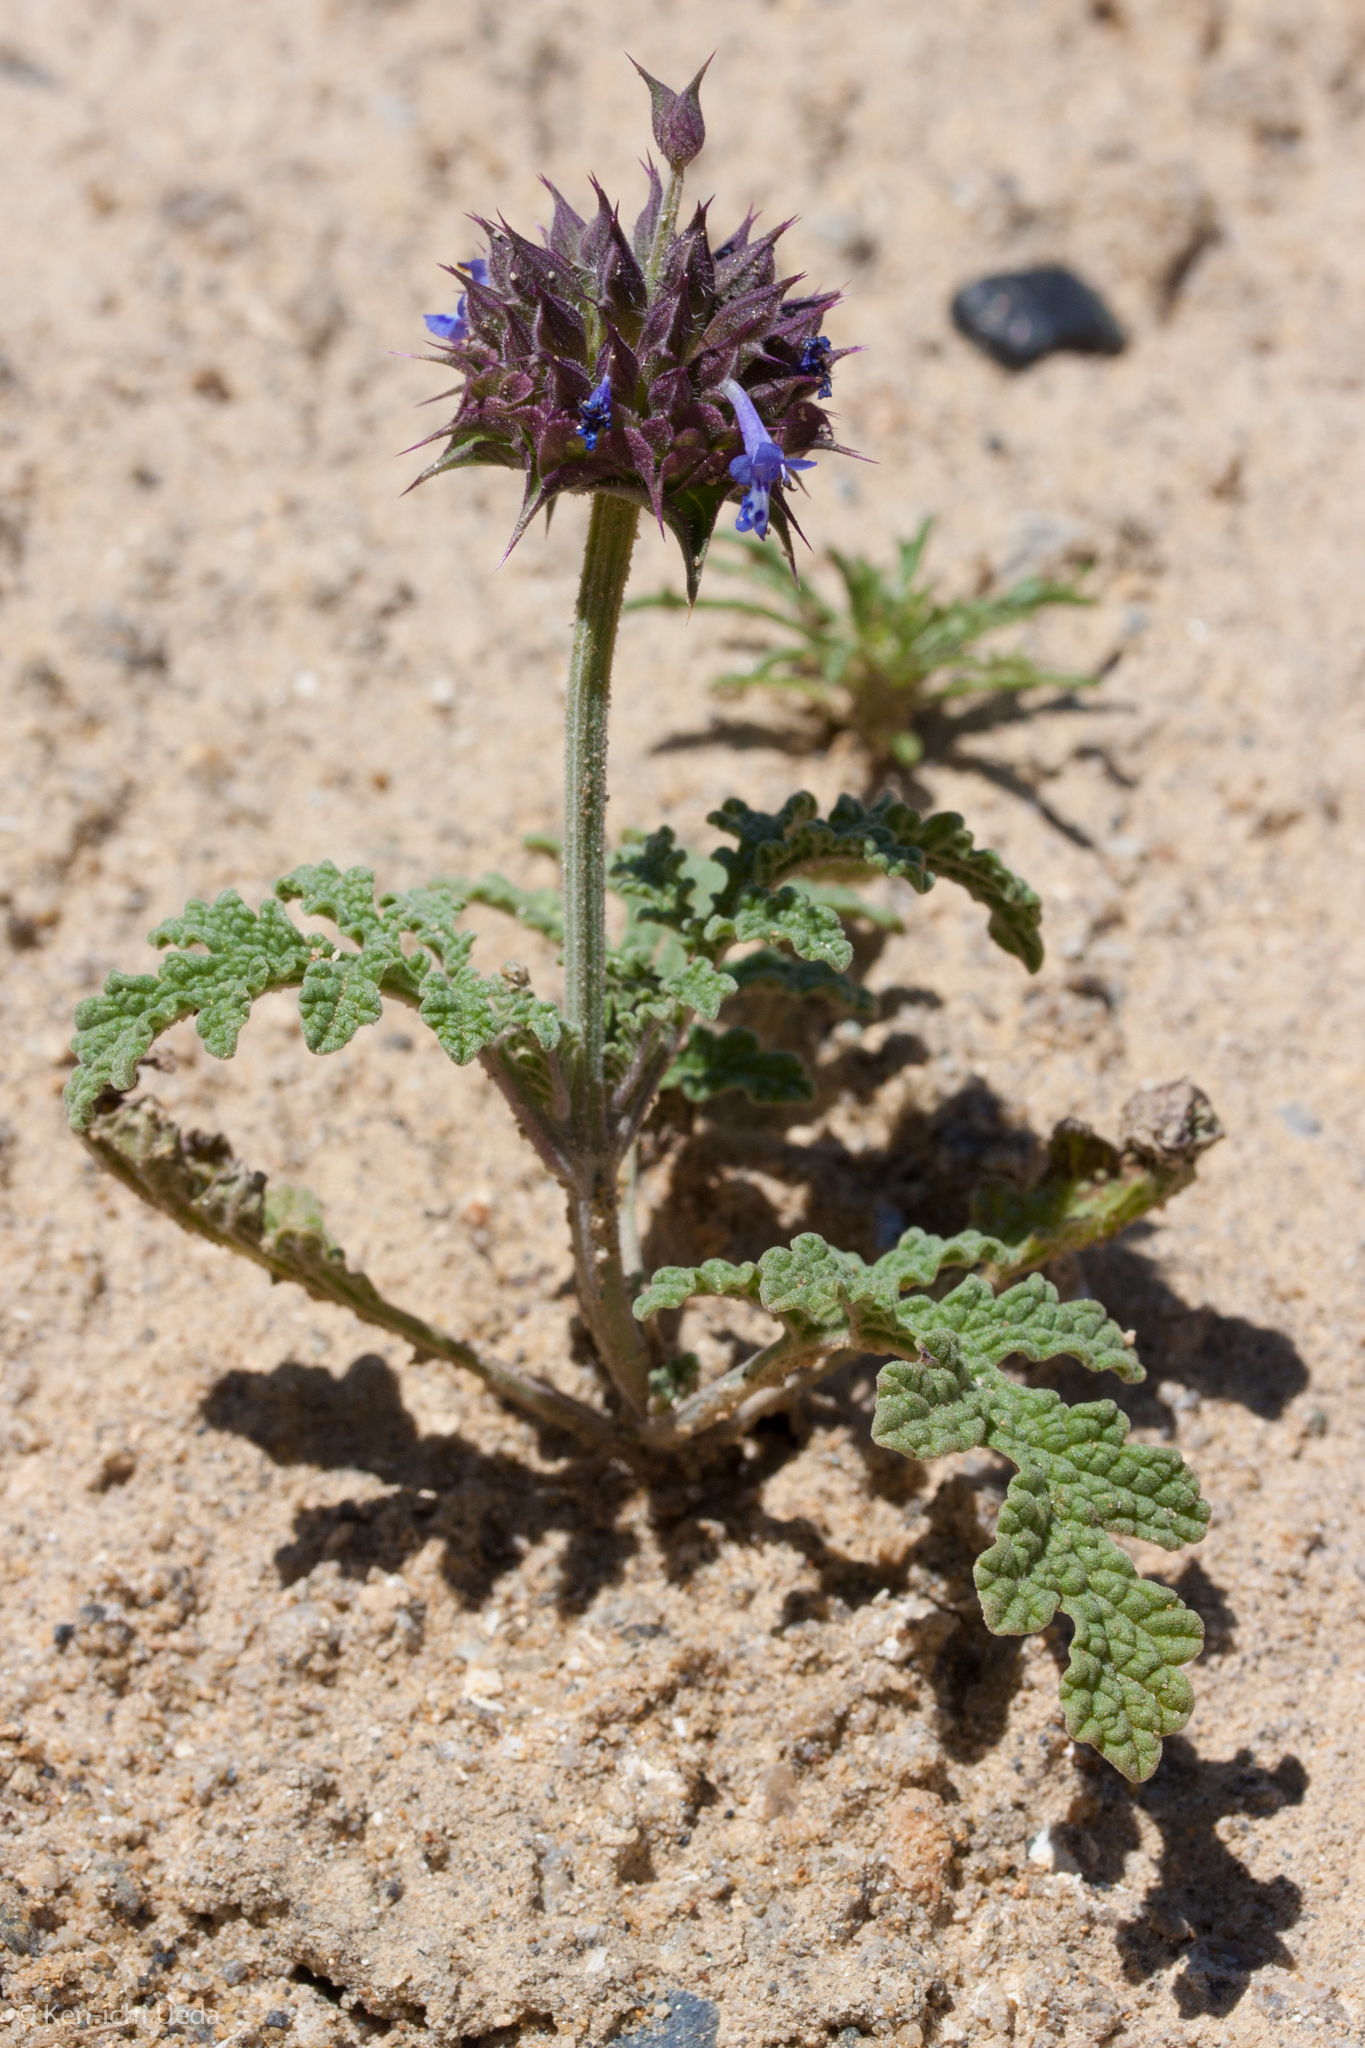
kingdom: Plantae
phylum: Tracheophyta
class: Magnoliopsida
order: Lamiales
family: Lamiaceae
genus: Salvia
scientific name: Salvia columbariae
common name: Chia
